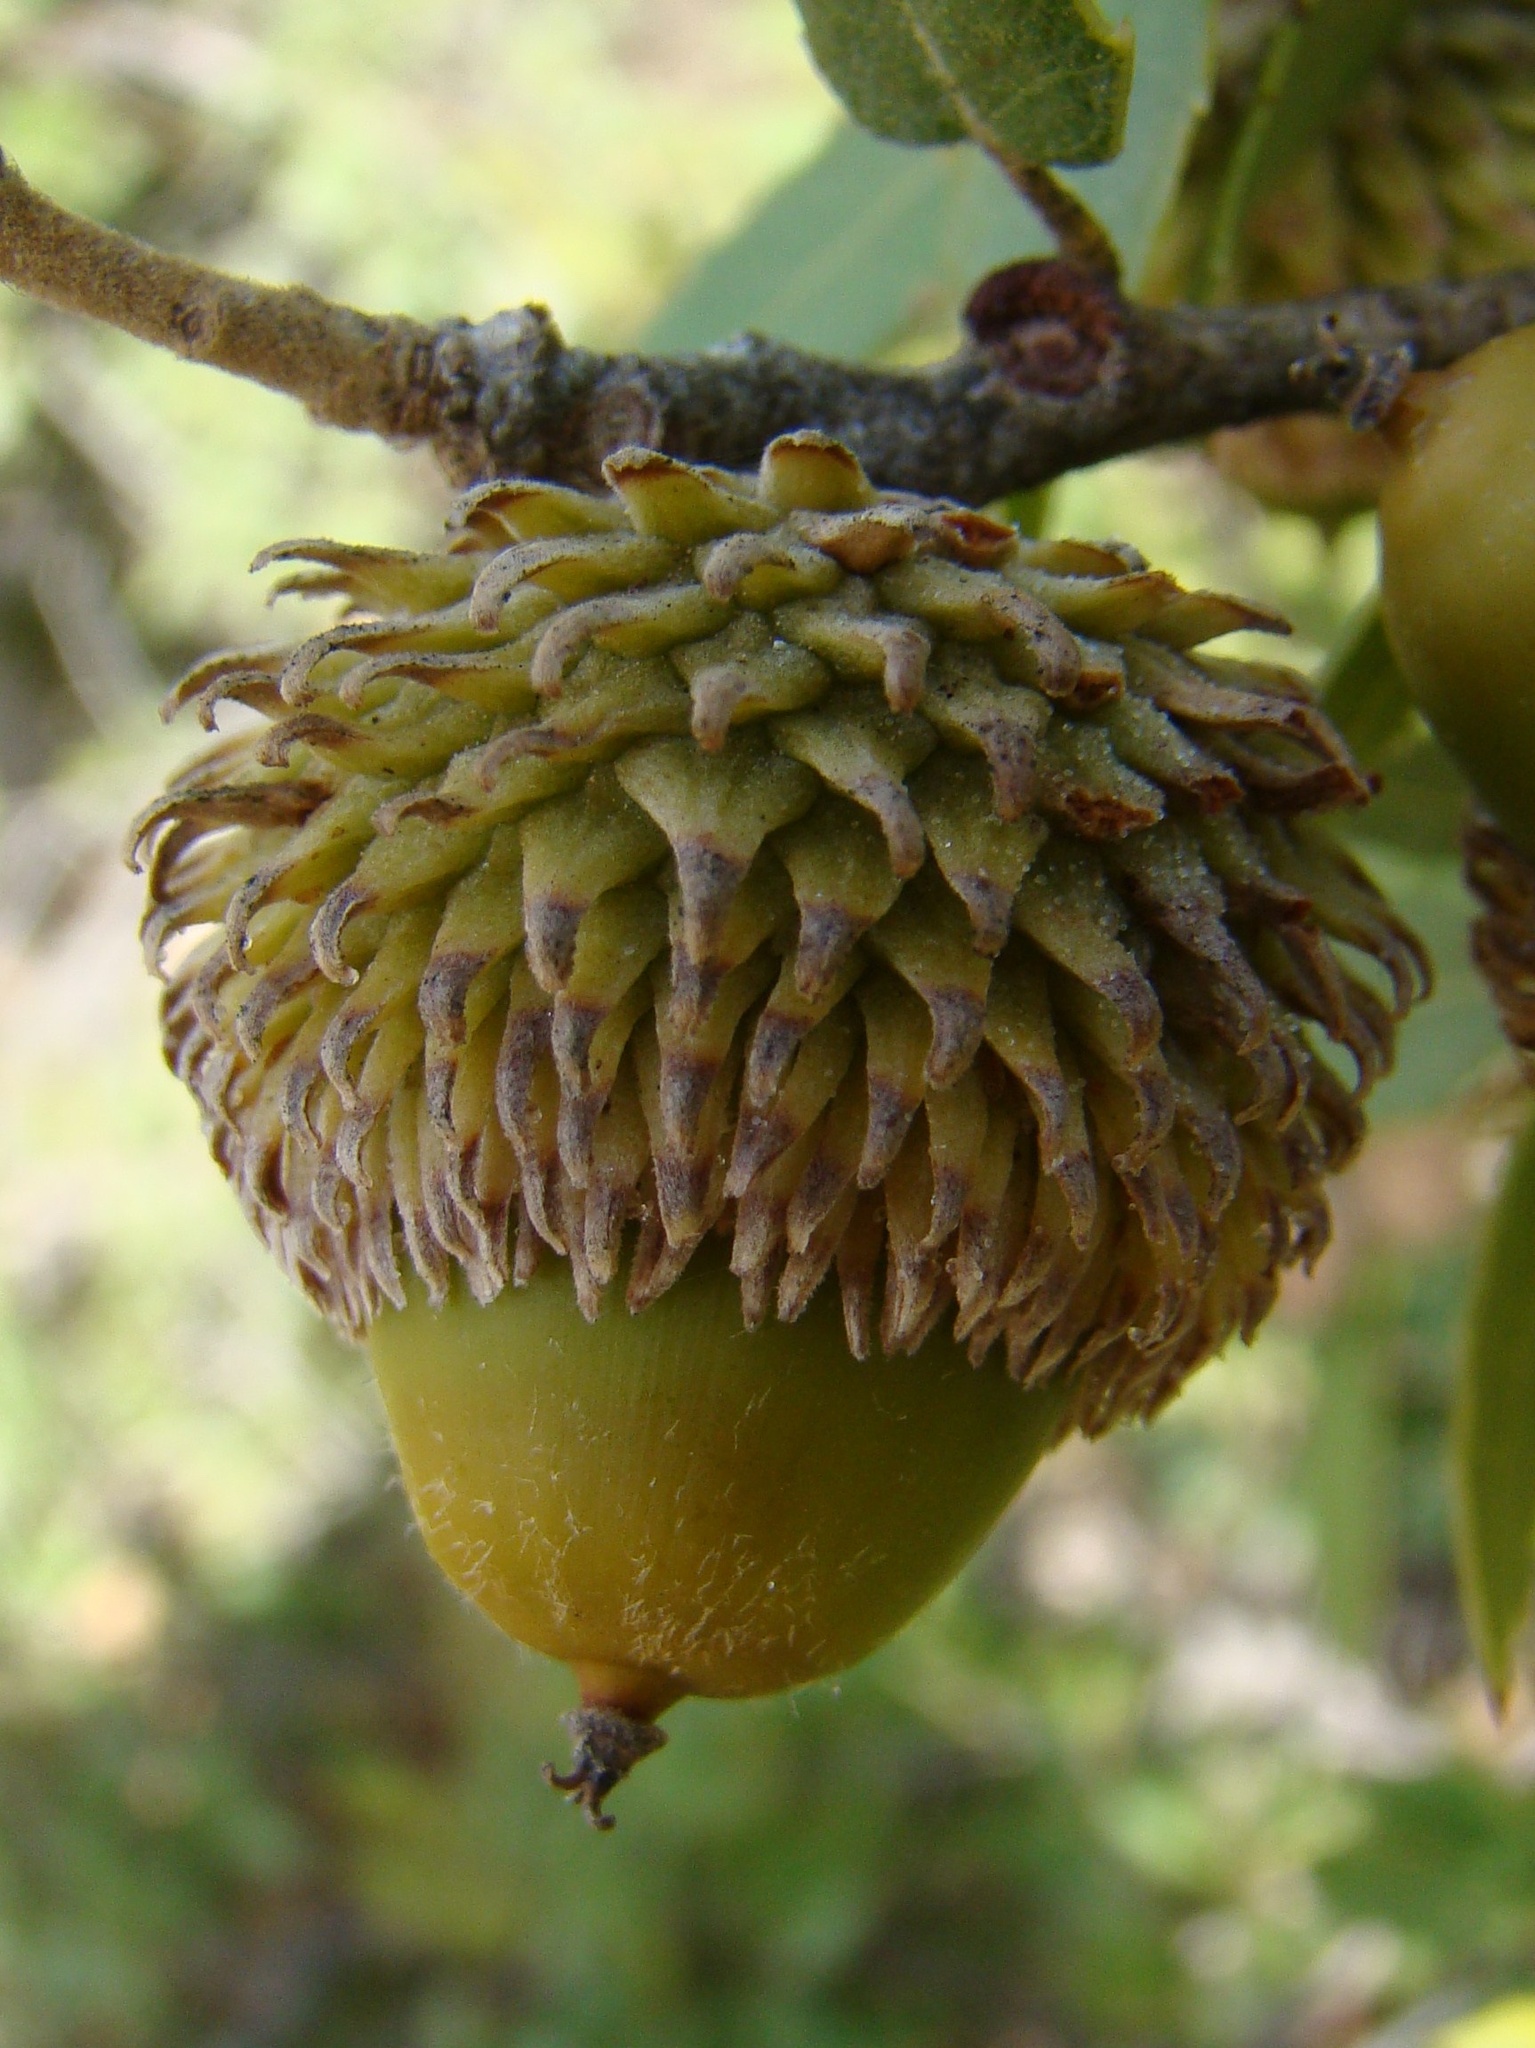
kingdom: Plantae
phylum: Tracheophyta
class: Magnoliopsida
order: Fagales
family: Fagaceae
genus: Quercus
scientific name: Quercus coccifera
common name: Kermes oak
